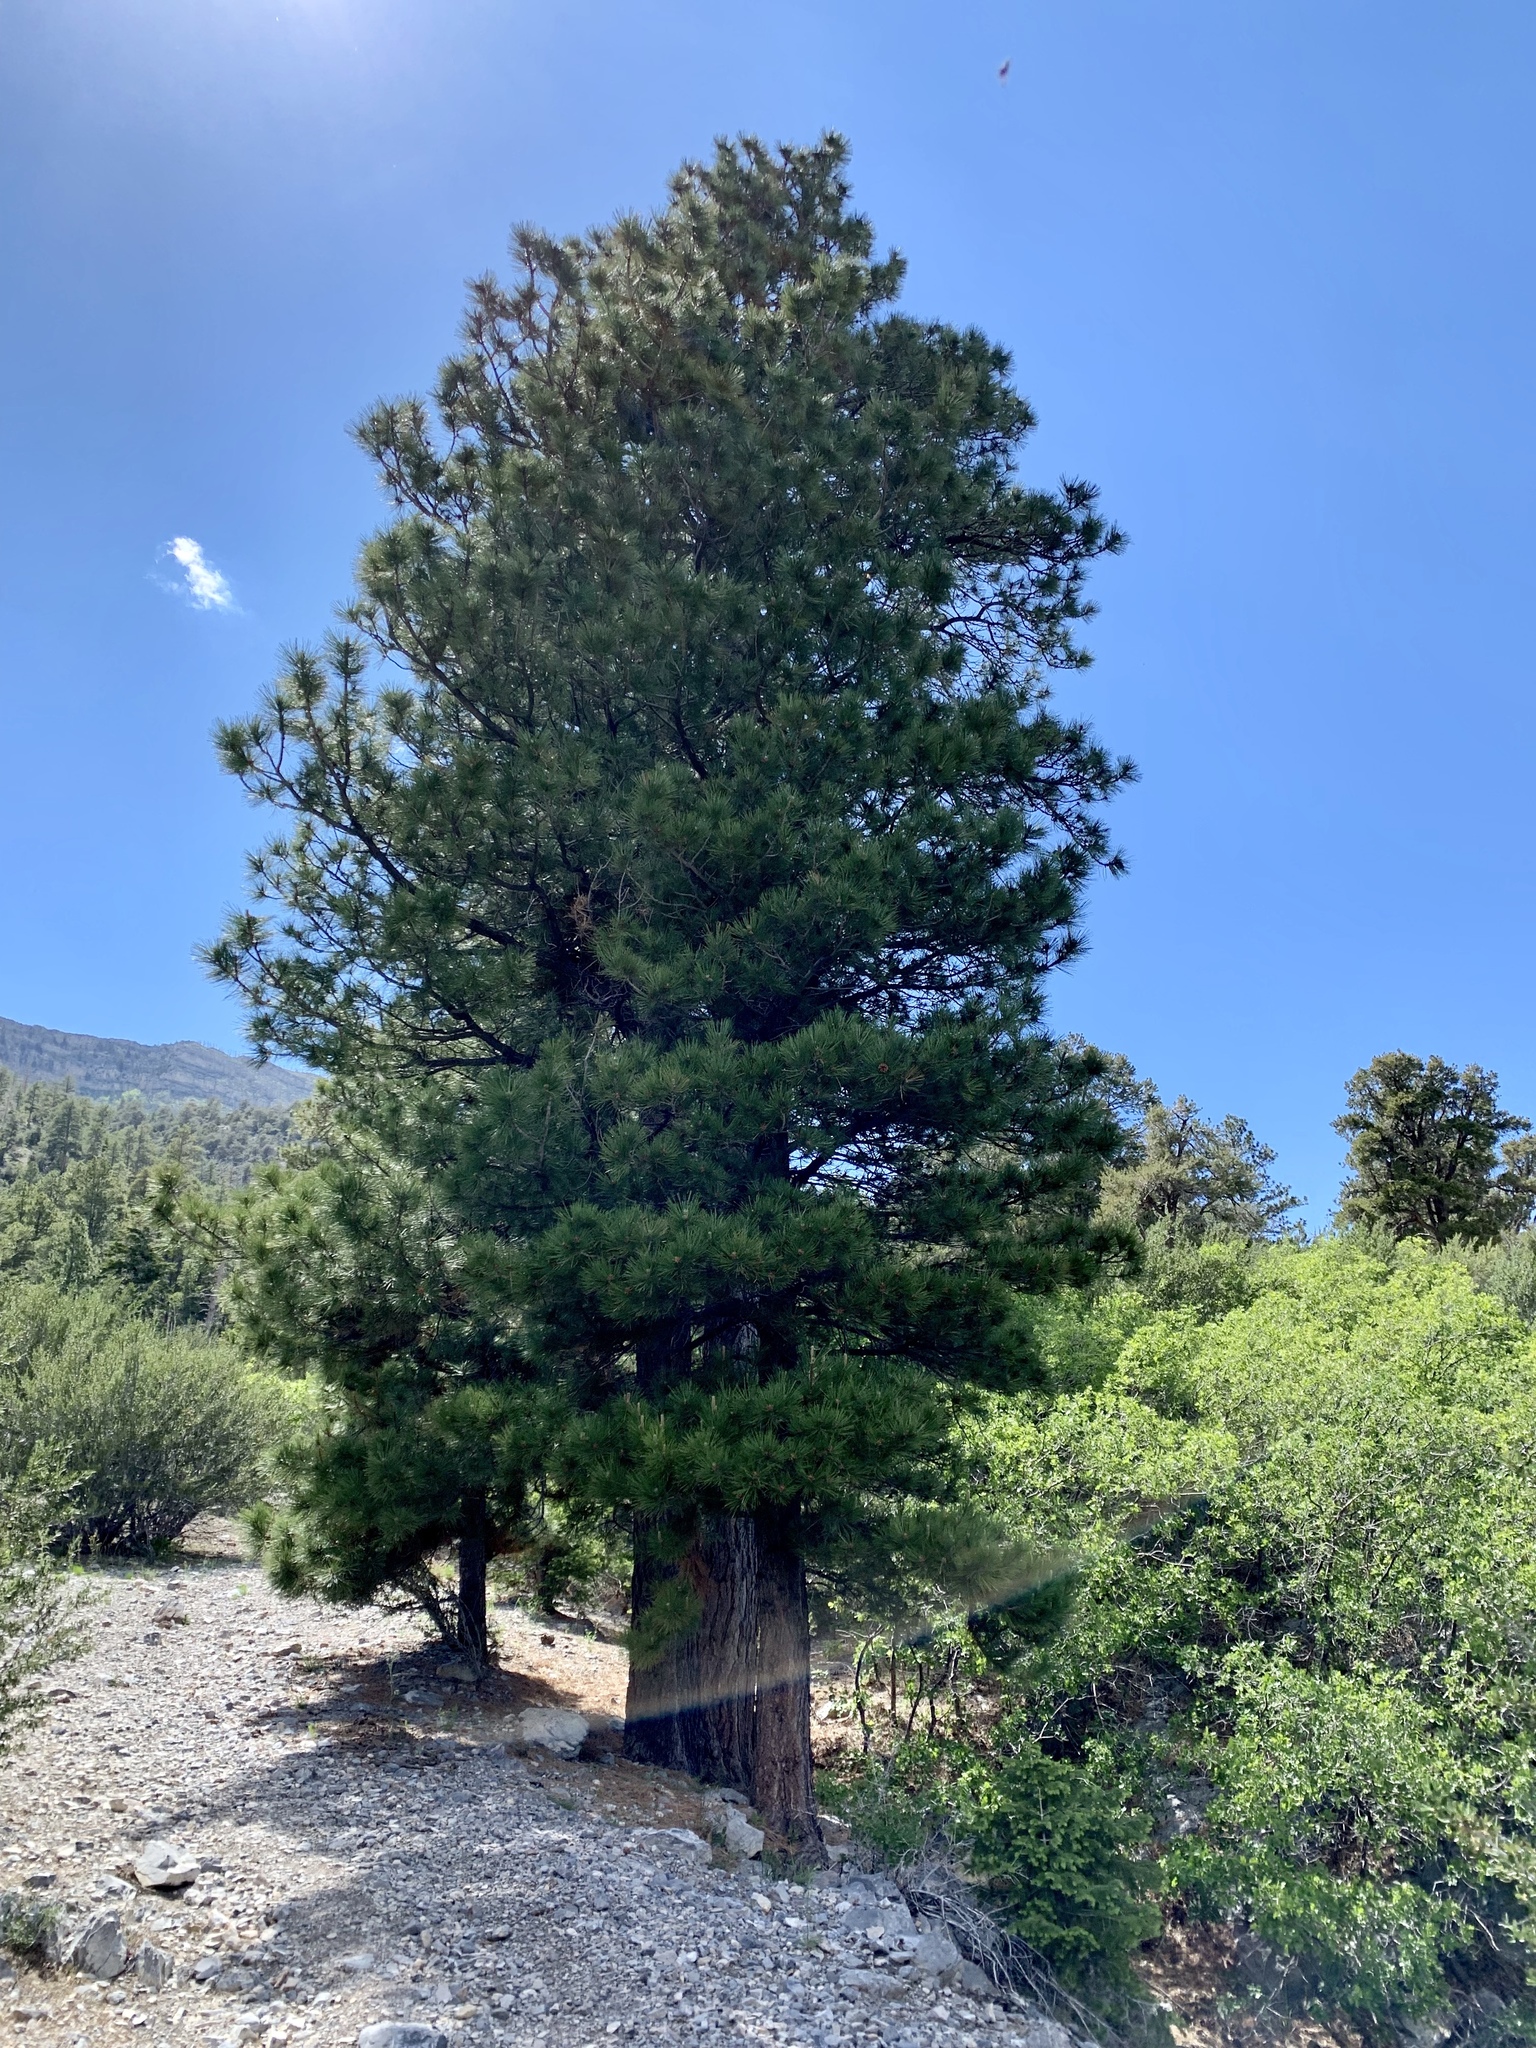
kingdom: Plantae
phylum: Tracheophyta
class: Pinopsida
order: Pinales
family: Pinaceae
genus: Pinus
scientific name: Pinus ponderosa
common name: Western yellow-pine
